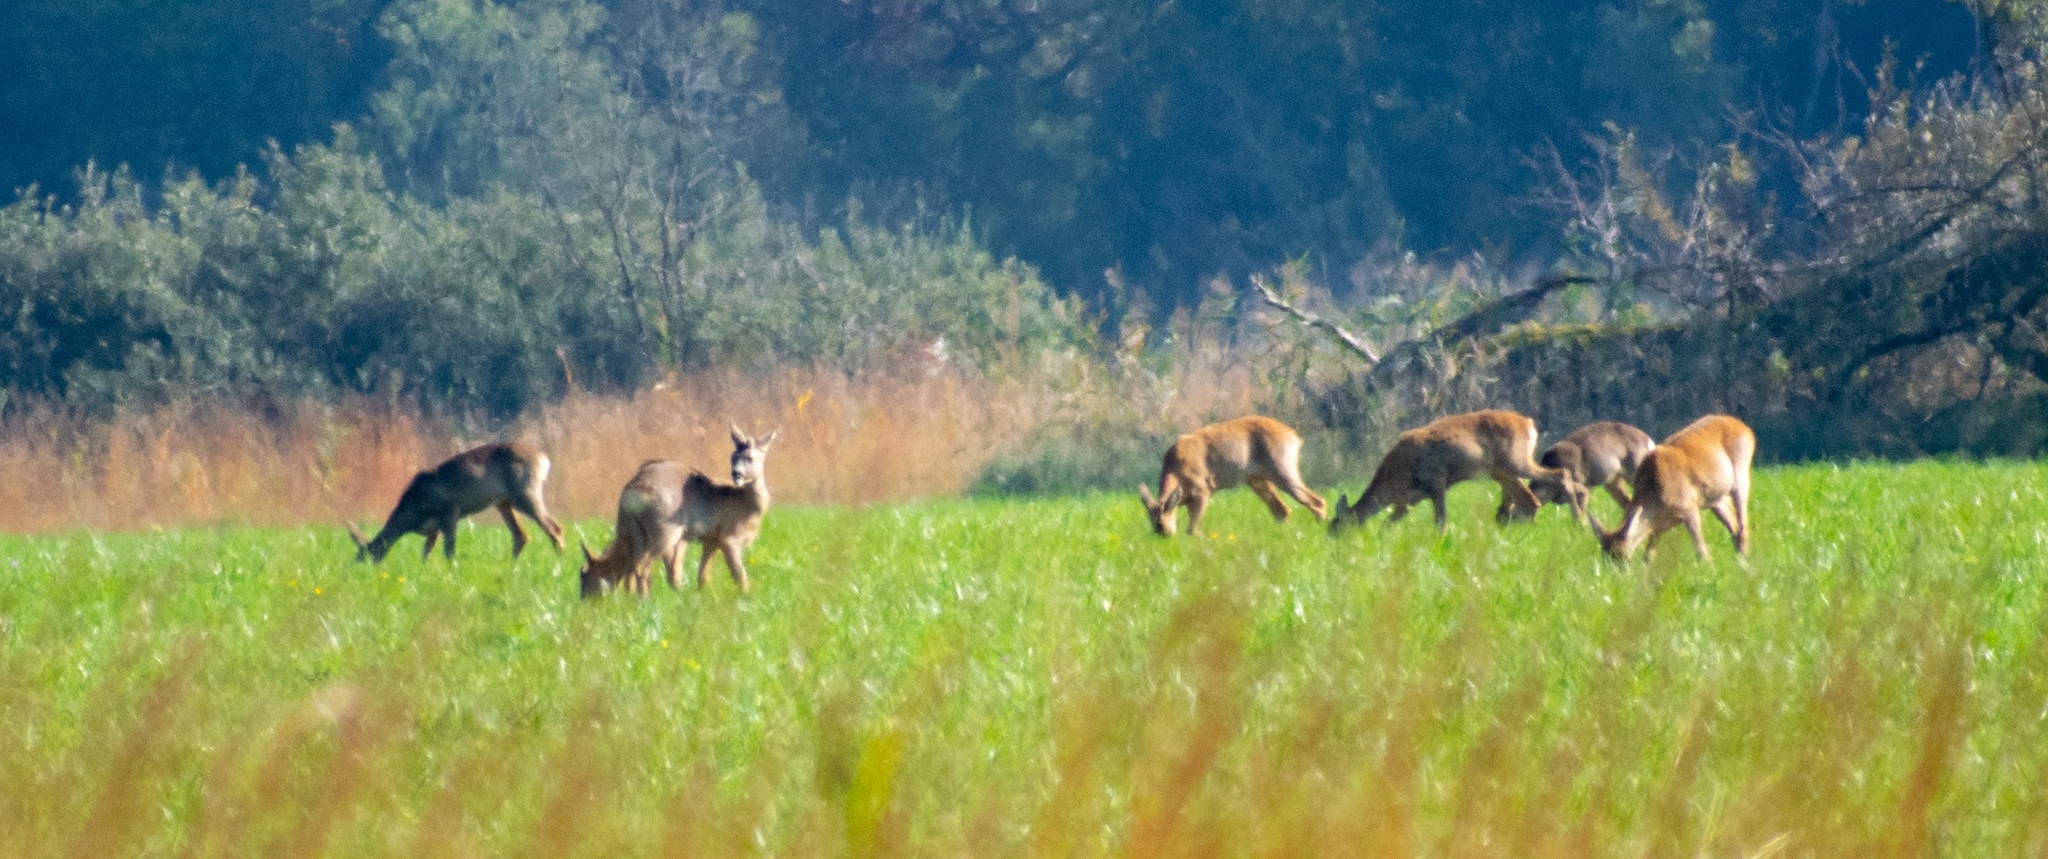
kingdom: Animalia
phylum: Chordata
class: Mammalia
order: Artiodactyla
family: Cervidae
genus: Capreolus
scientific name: Capreolus capreolus
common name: Western roe deer
